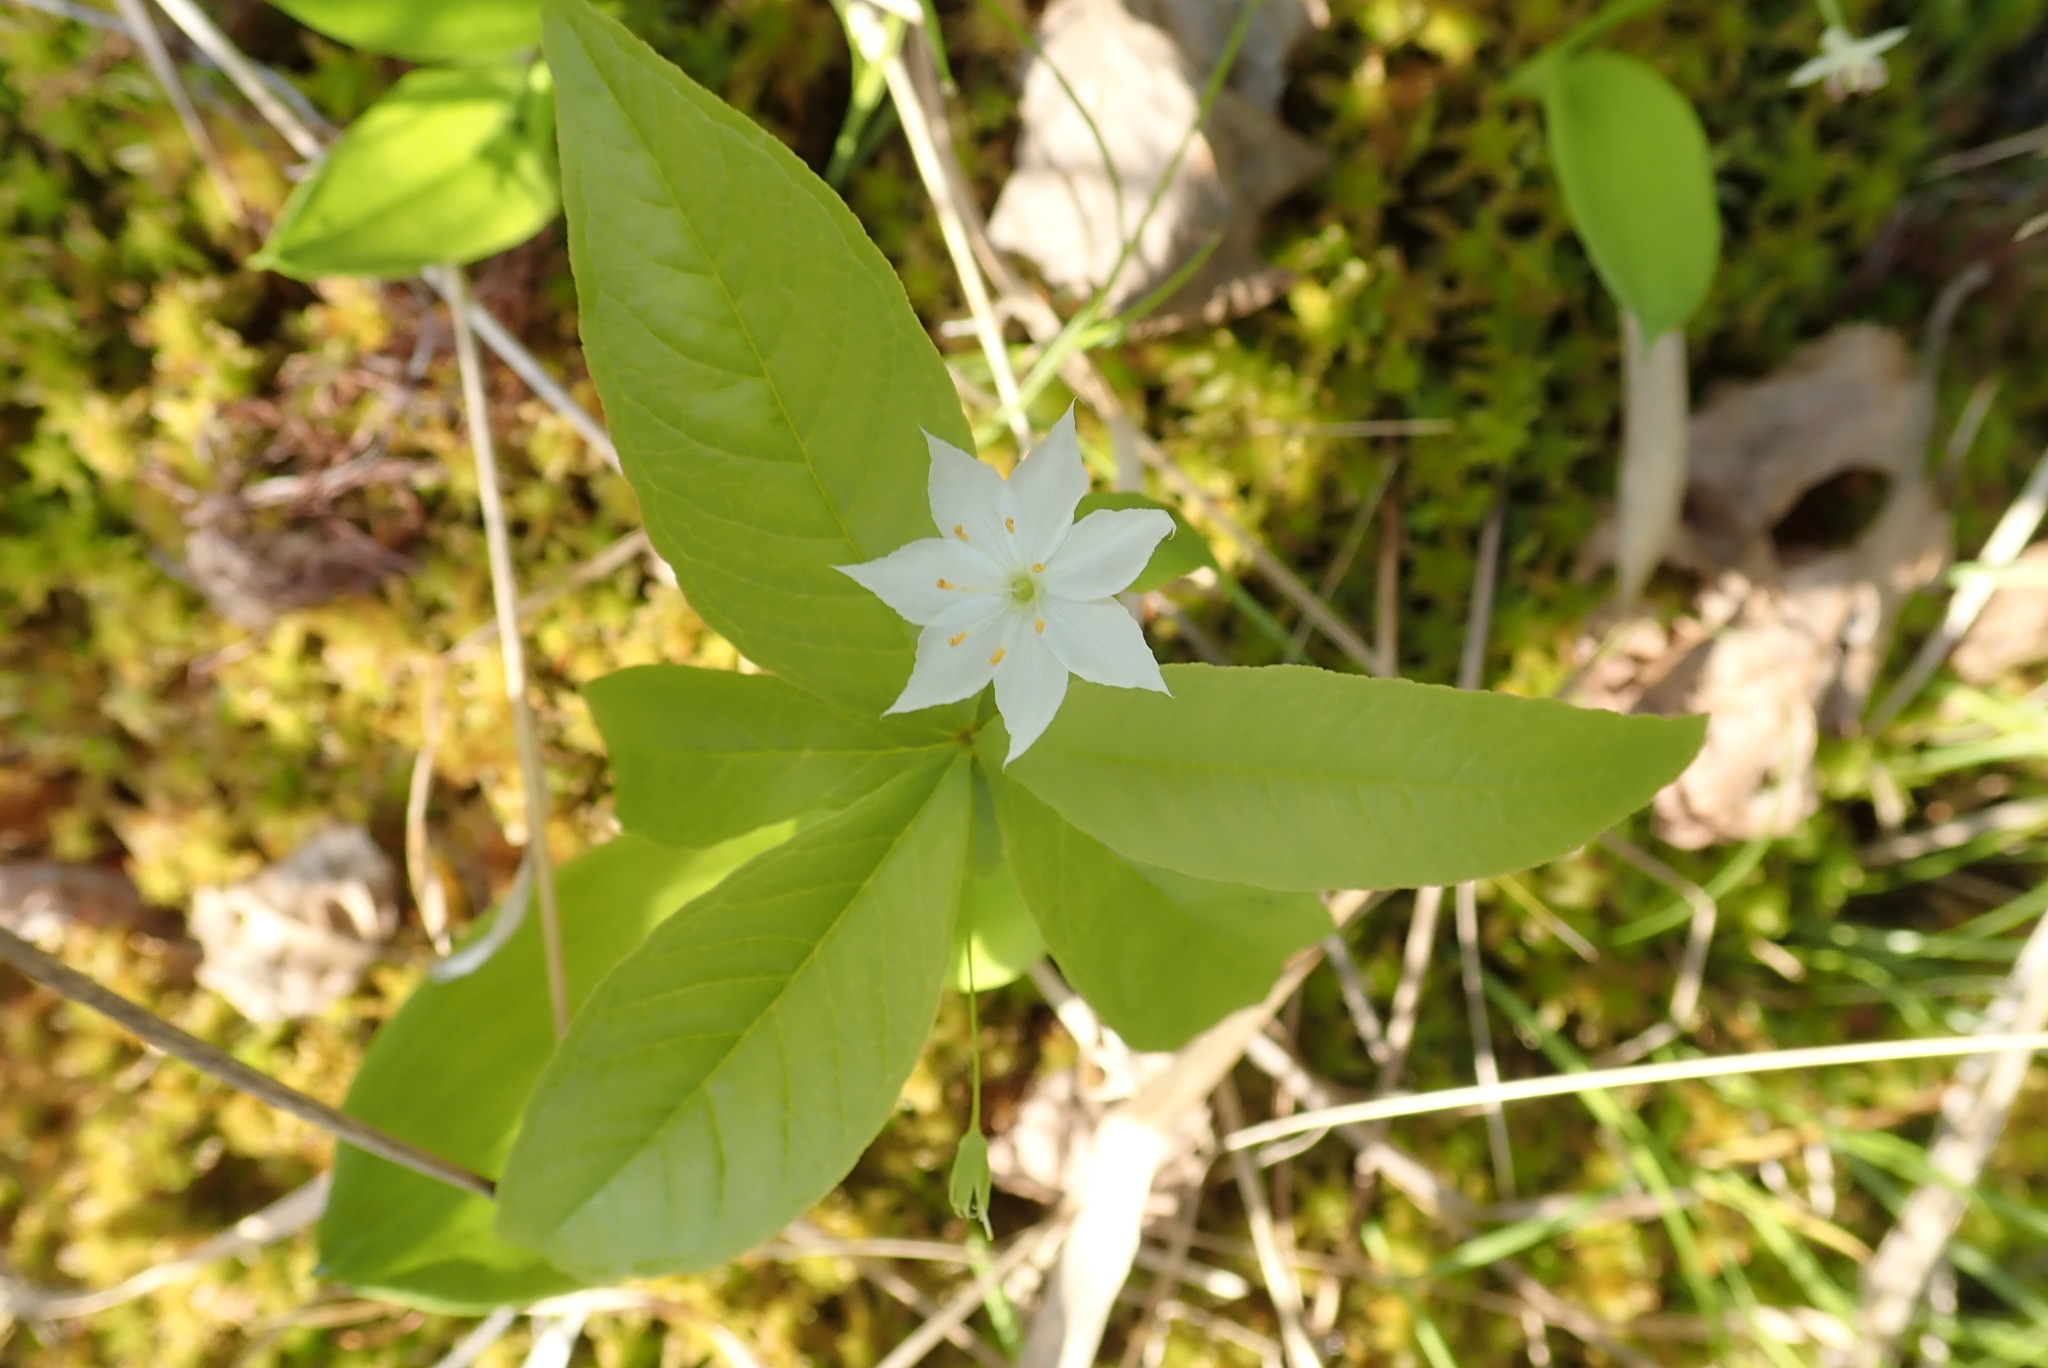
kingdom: Plantae
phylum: Tracheophyta
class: Magnoliopsida
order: Ericales
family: Primulaceae
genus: Lysimachia
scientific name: Lysimachia borealis
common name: American starflower
